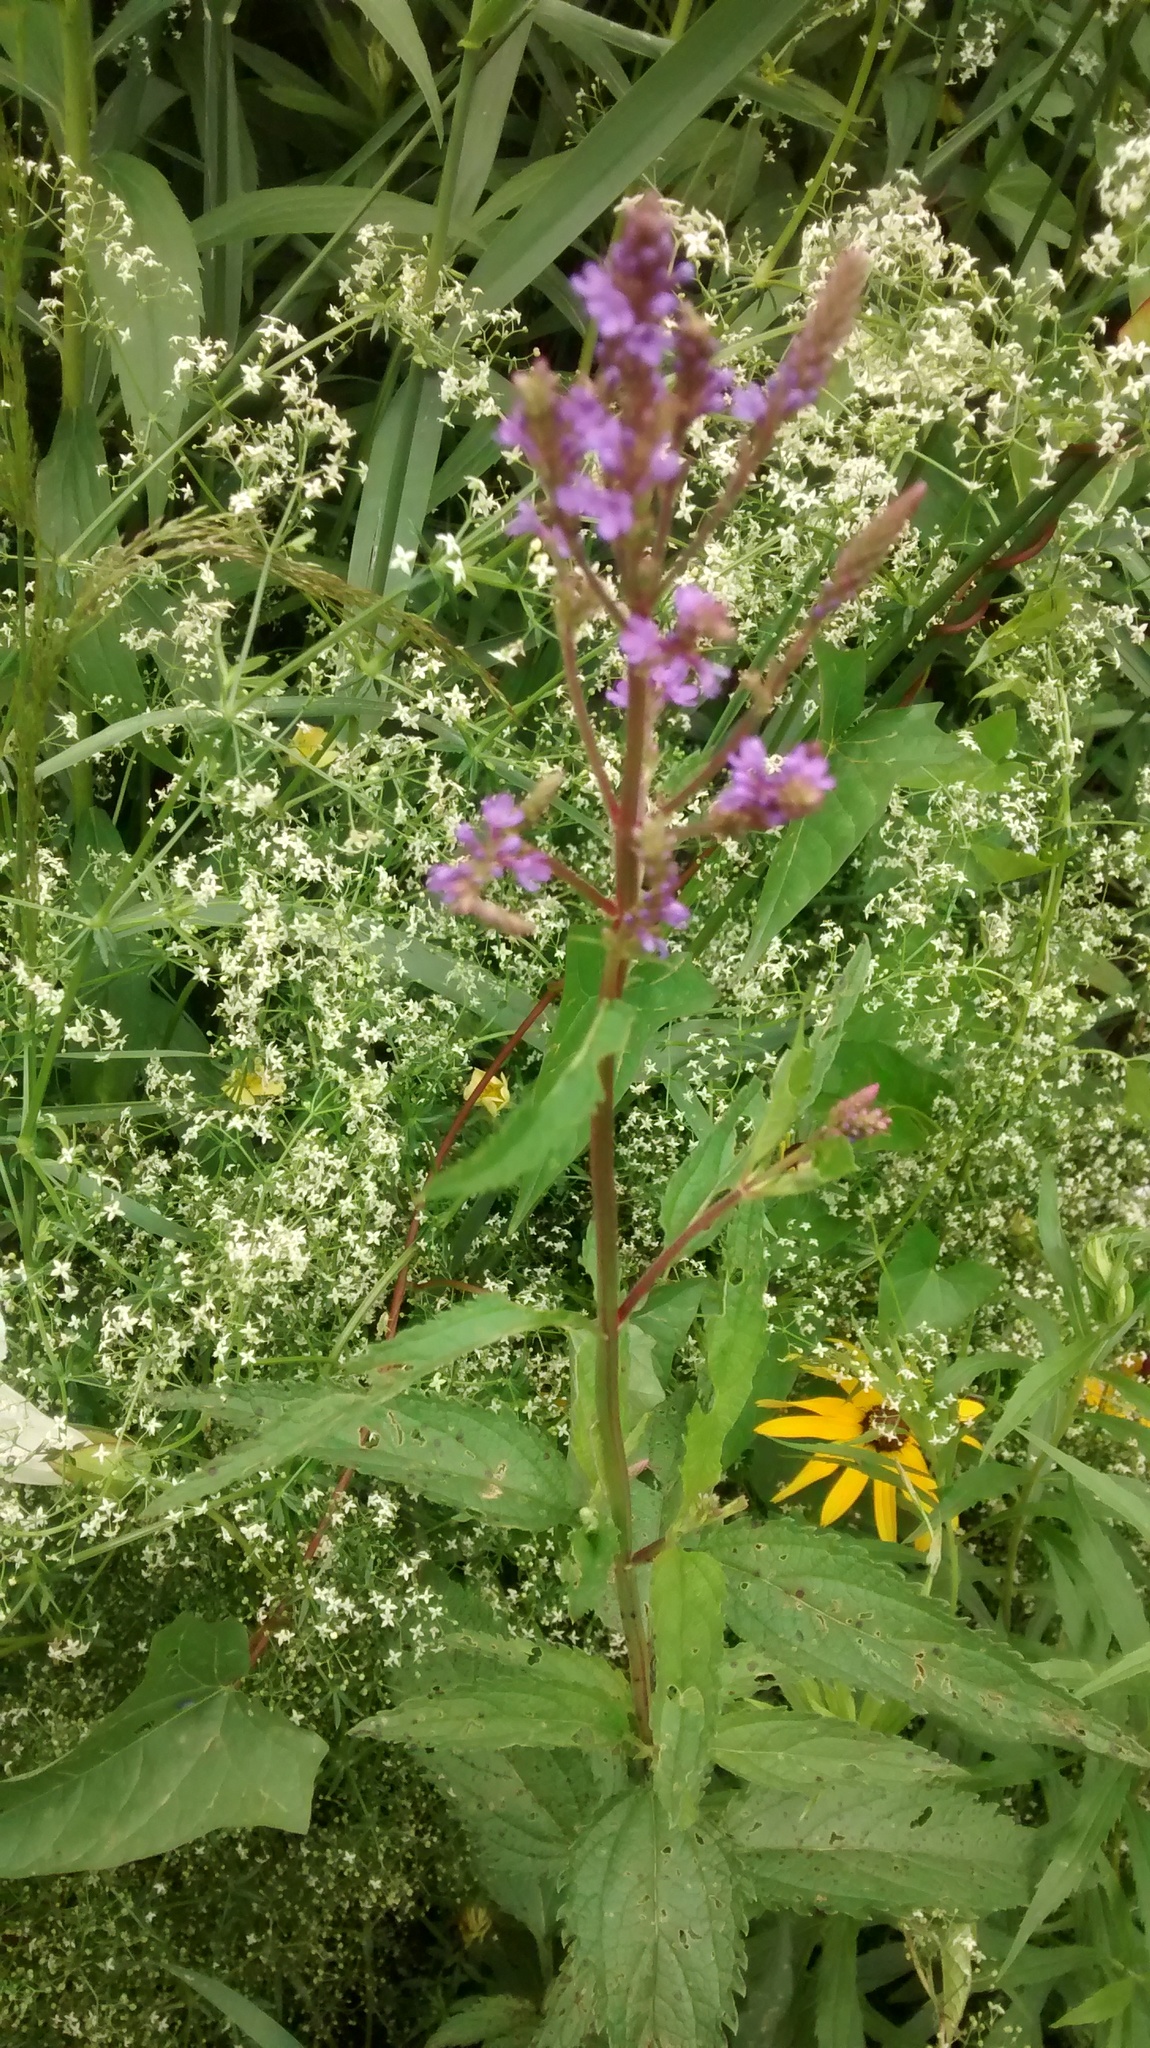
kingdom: Plantae
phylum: Tracheophyta
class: Magnoliopsida
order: Lamiales
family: Verbenaceae
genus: Verbena
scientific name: Verbena hastata
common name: American blue vervain
